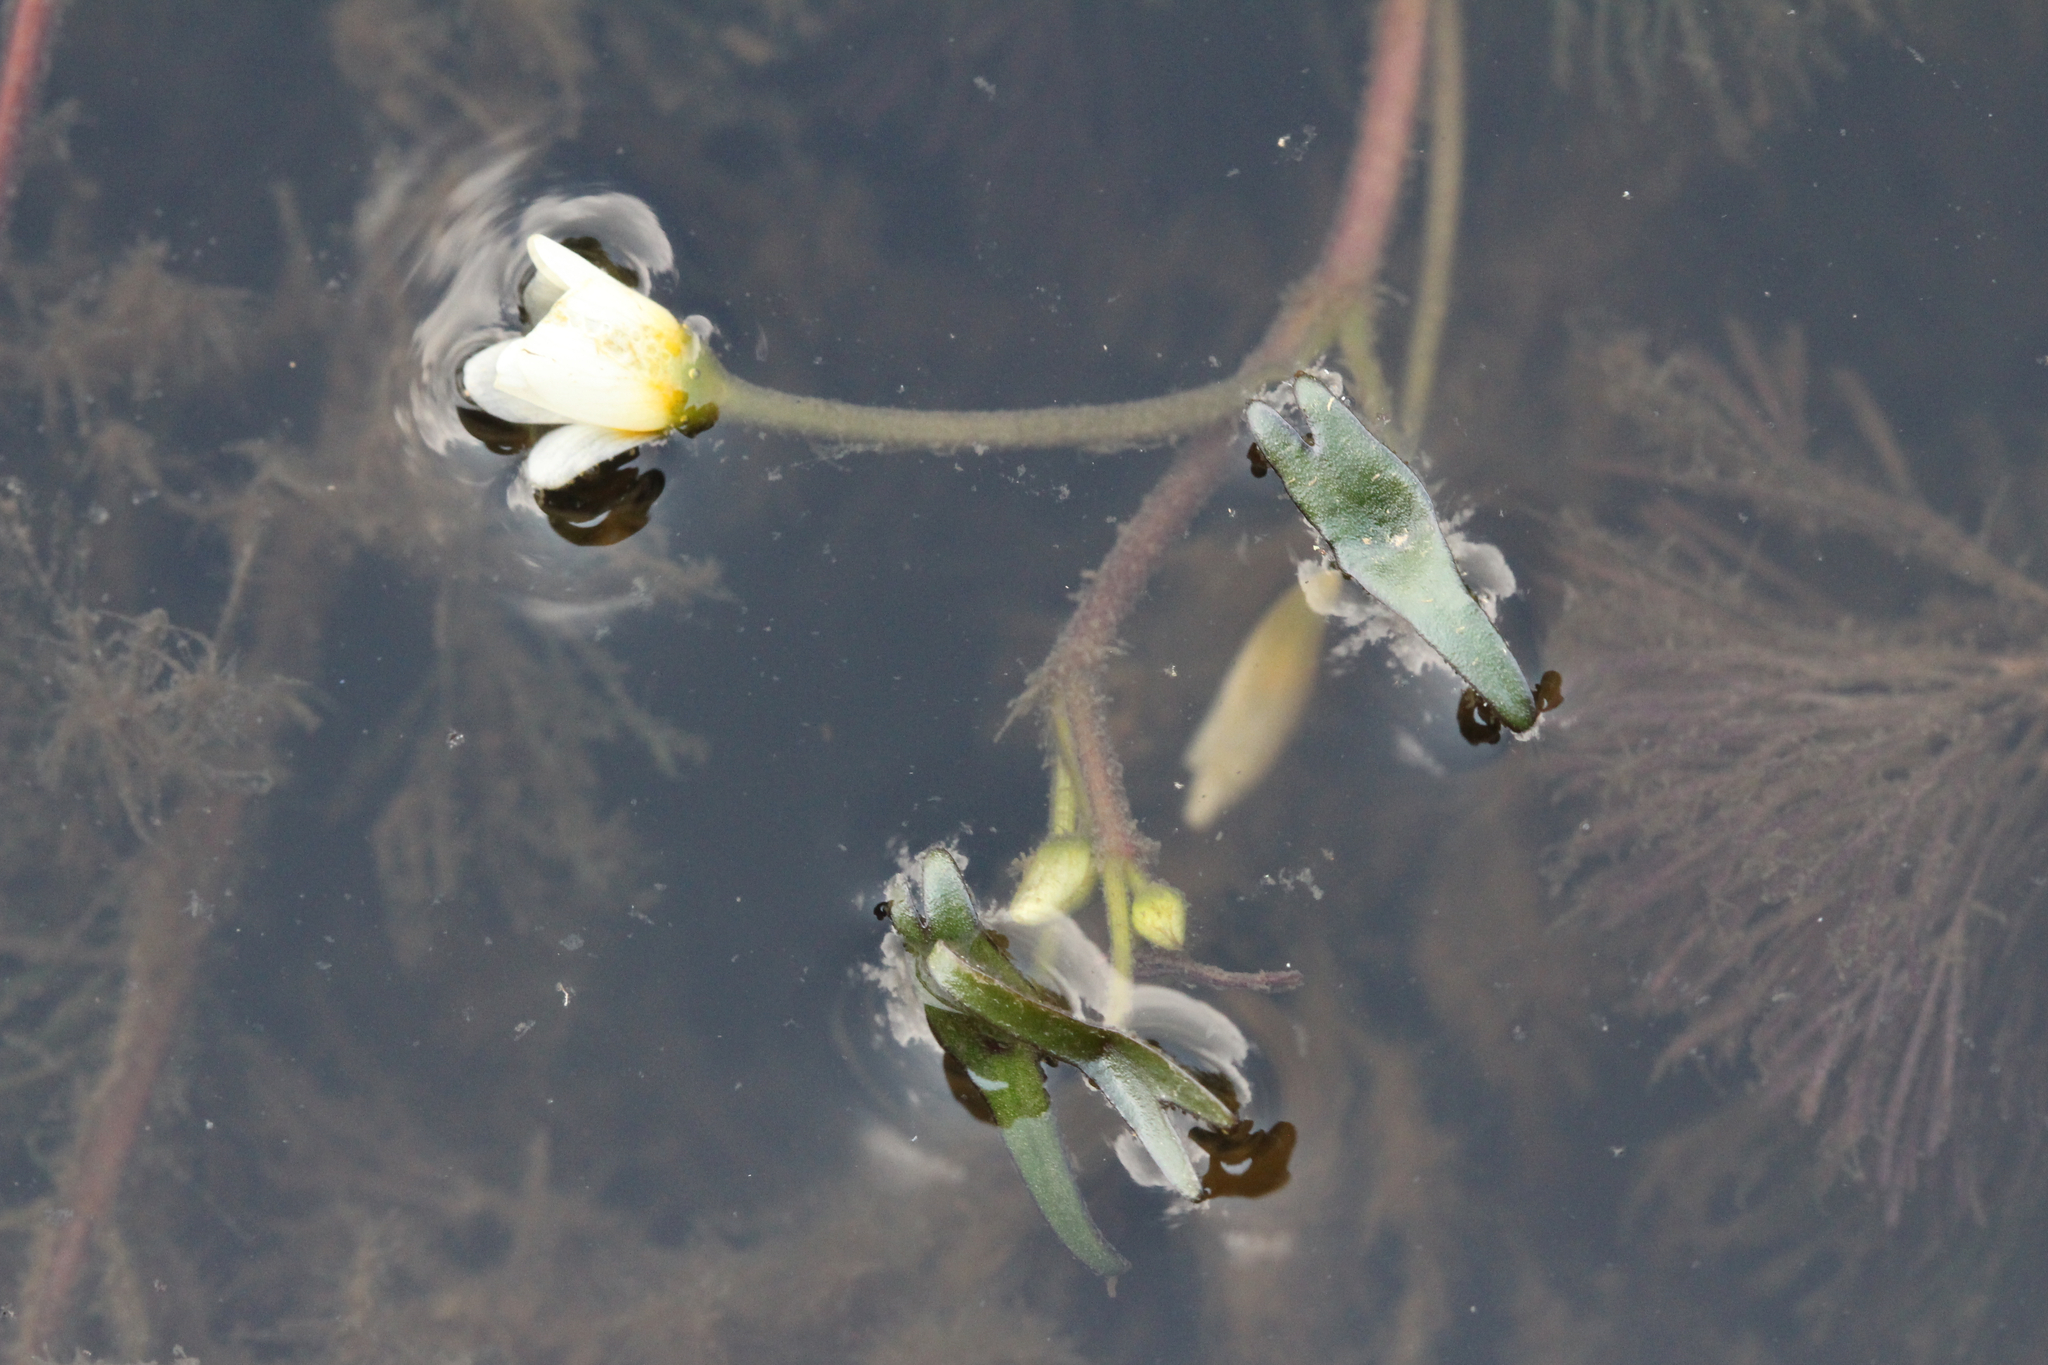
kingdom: Plantae
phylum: Tracheophyta
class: Magnoliopsida
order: Nymphaeales
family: Cabombaceae
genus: Cabomba
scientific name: Cabomba caroliniana
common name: Fanwort
